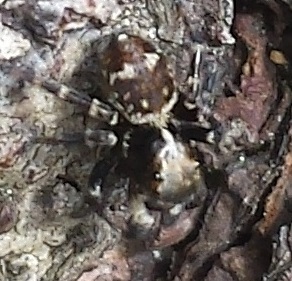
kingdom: Animalia
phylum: Arthropoda
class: Arachnida
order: Araneae
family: Salticidae
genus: Pseudeuophrys
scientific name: Pseudeuophrys erratica
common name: Jumping spider
